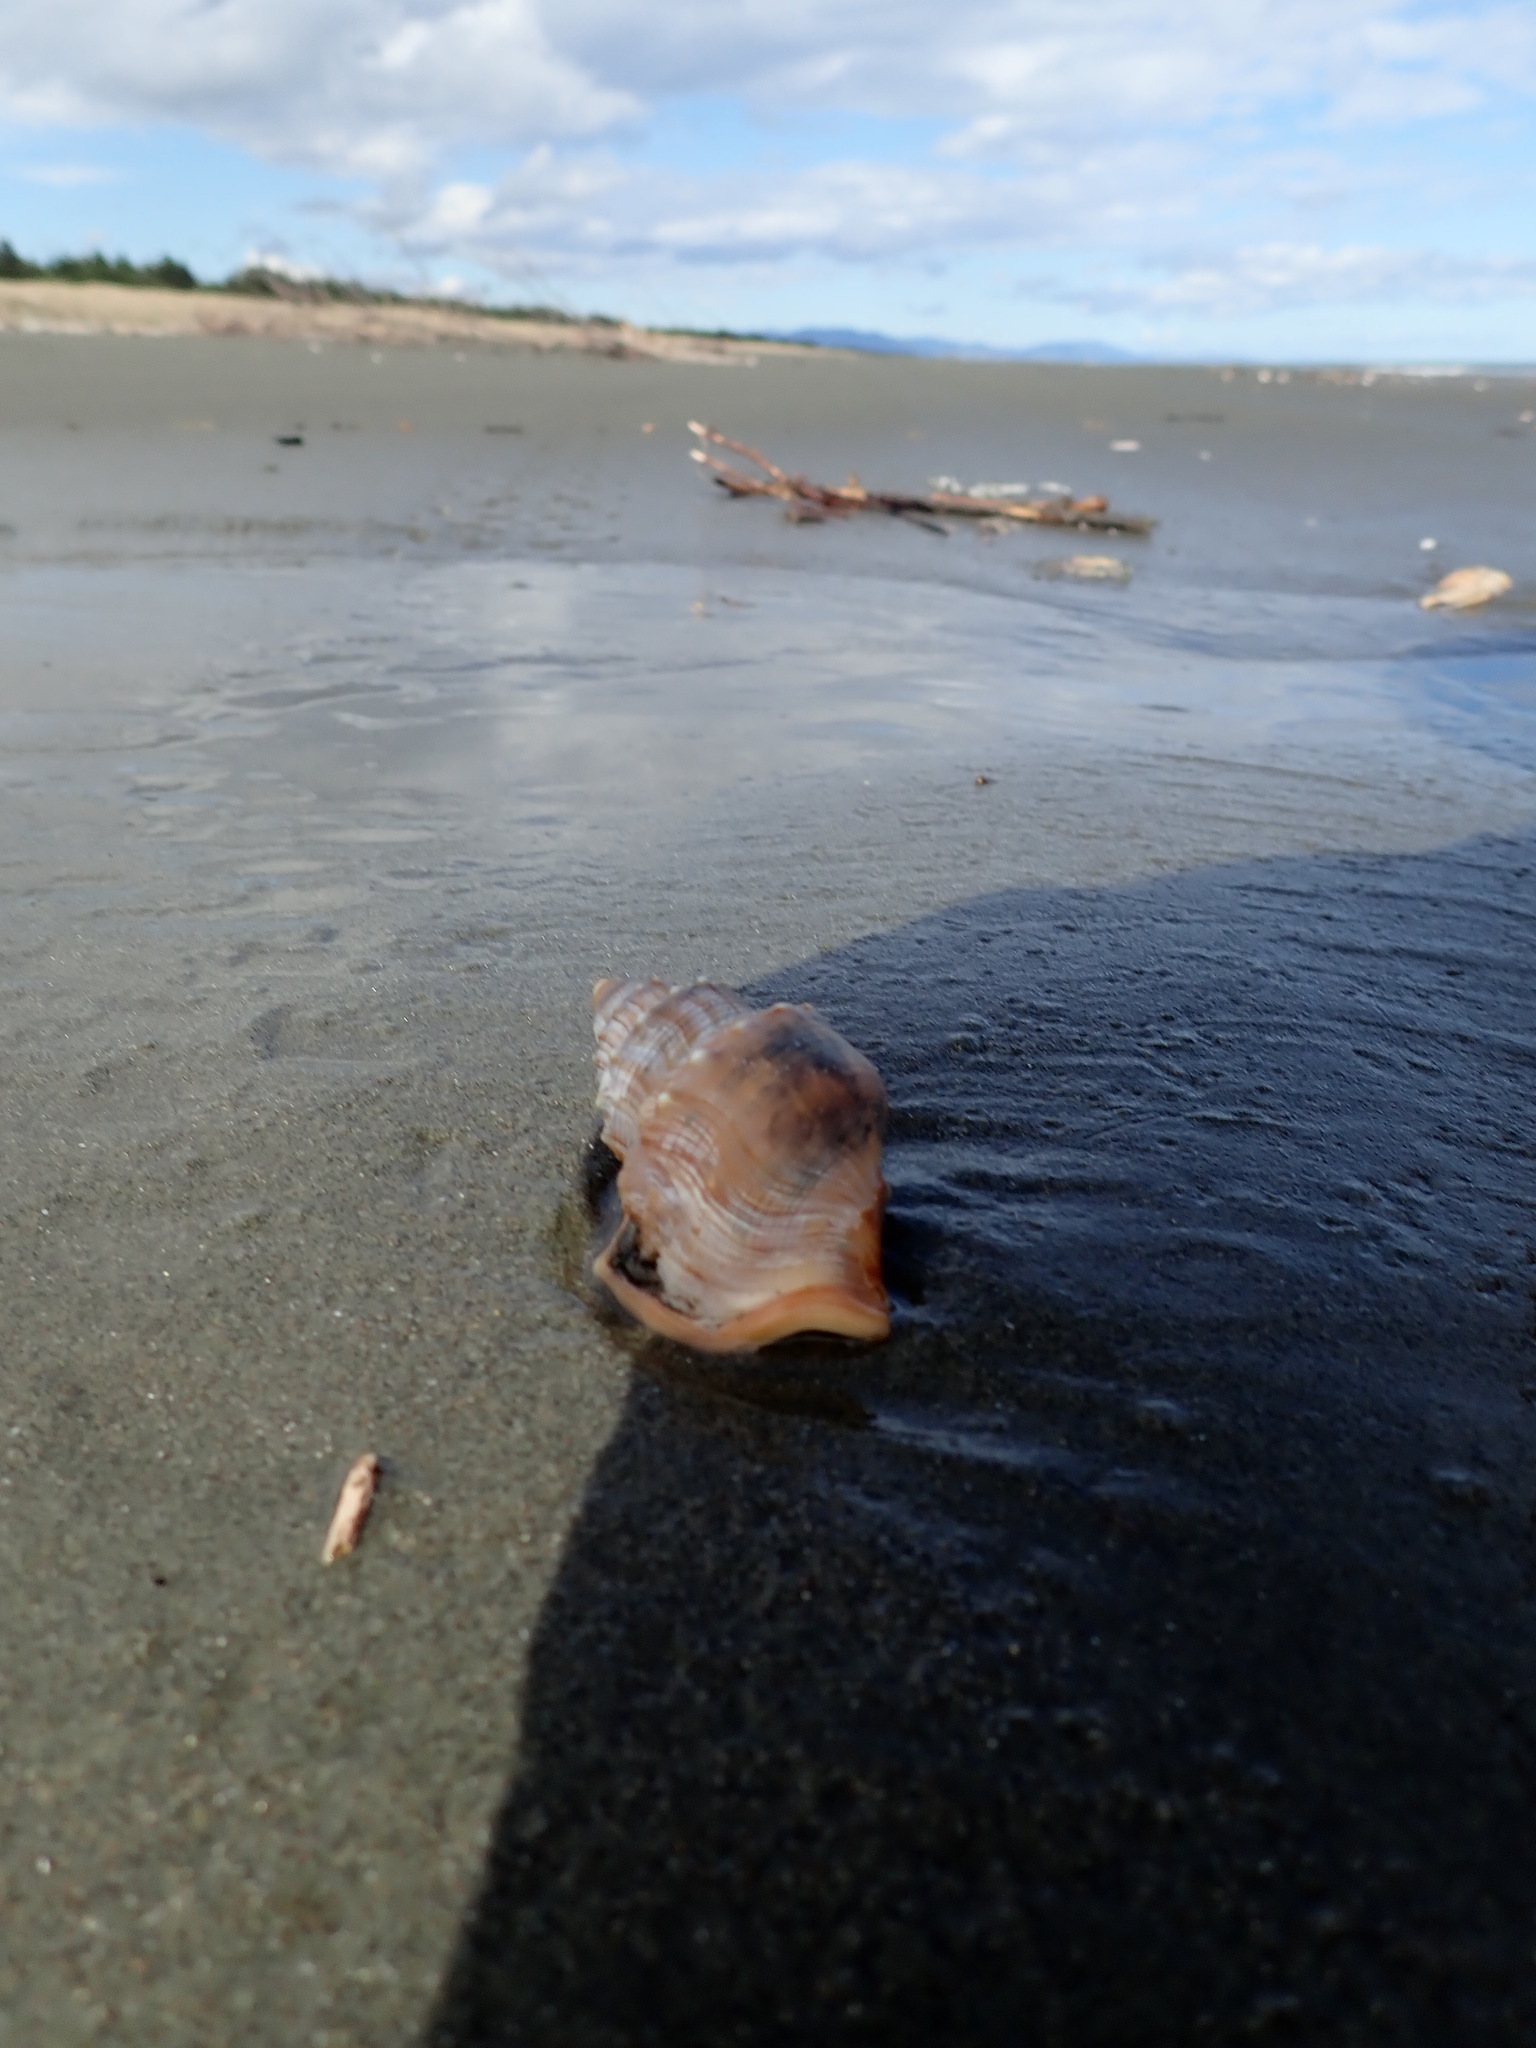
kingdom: Animalia
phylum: Mollusca
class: Gastropoda
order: Littorinimorpha
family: Struthiolariidae
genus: Struthiolaria
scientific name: Struthiolaria papulosa
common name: Large ostrich foot
